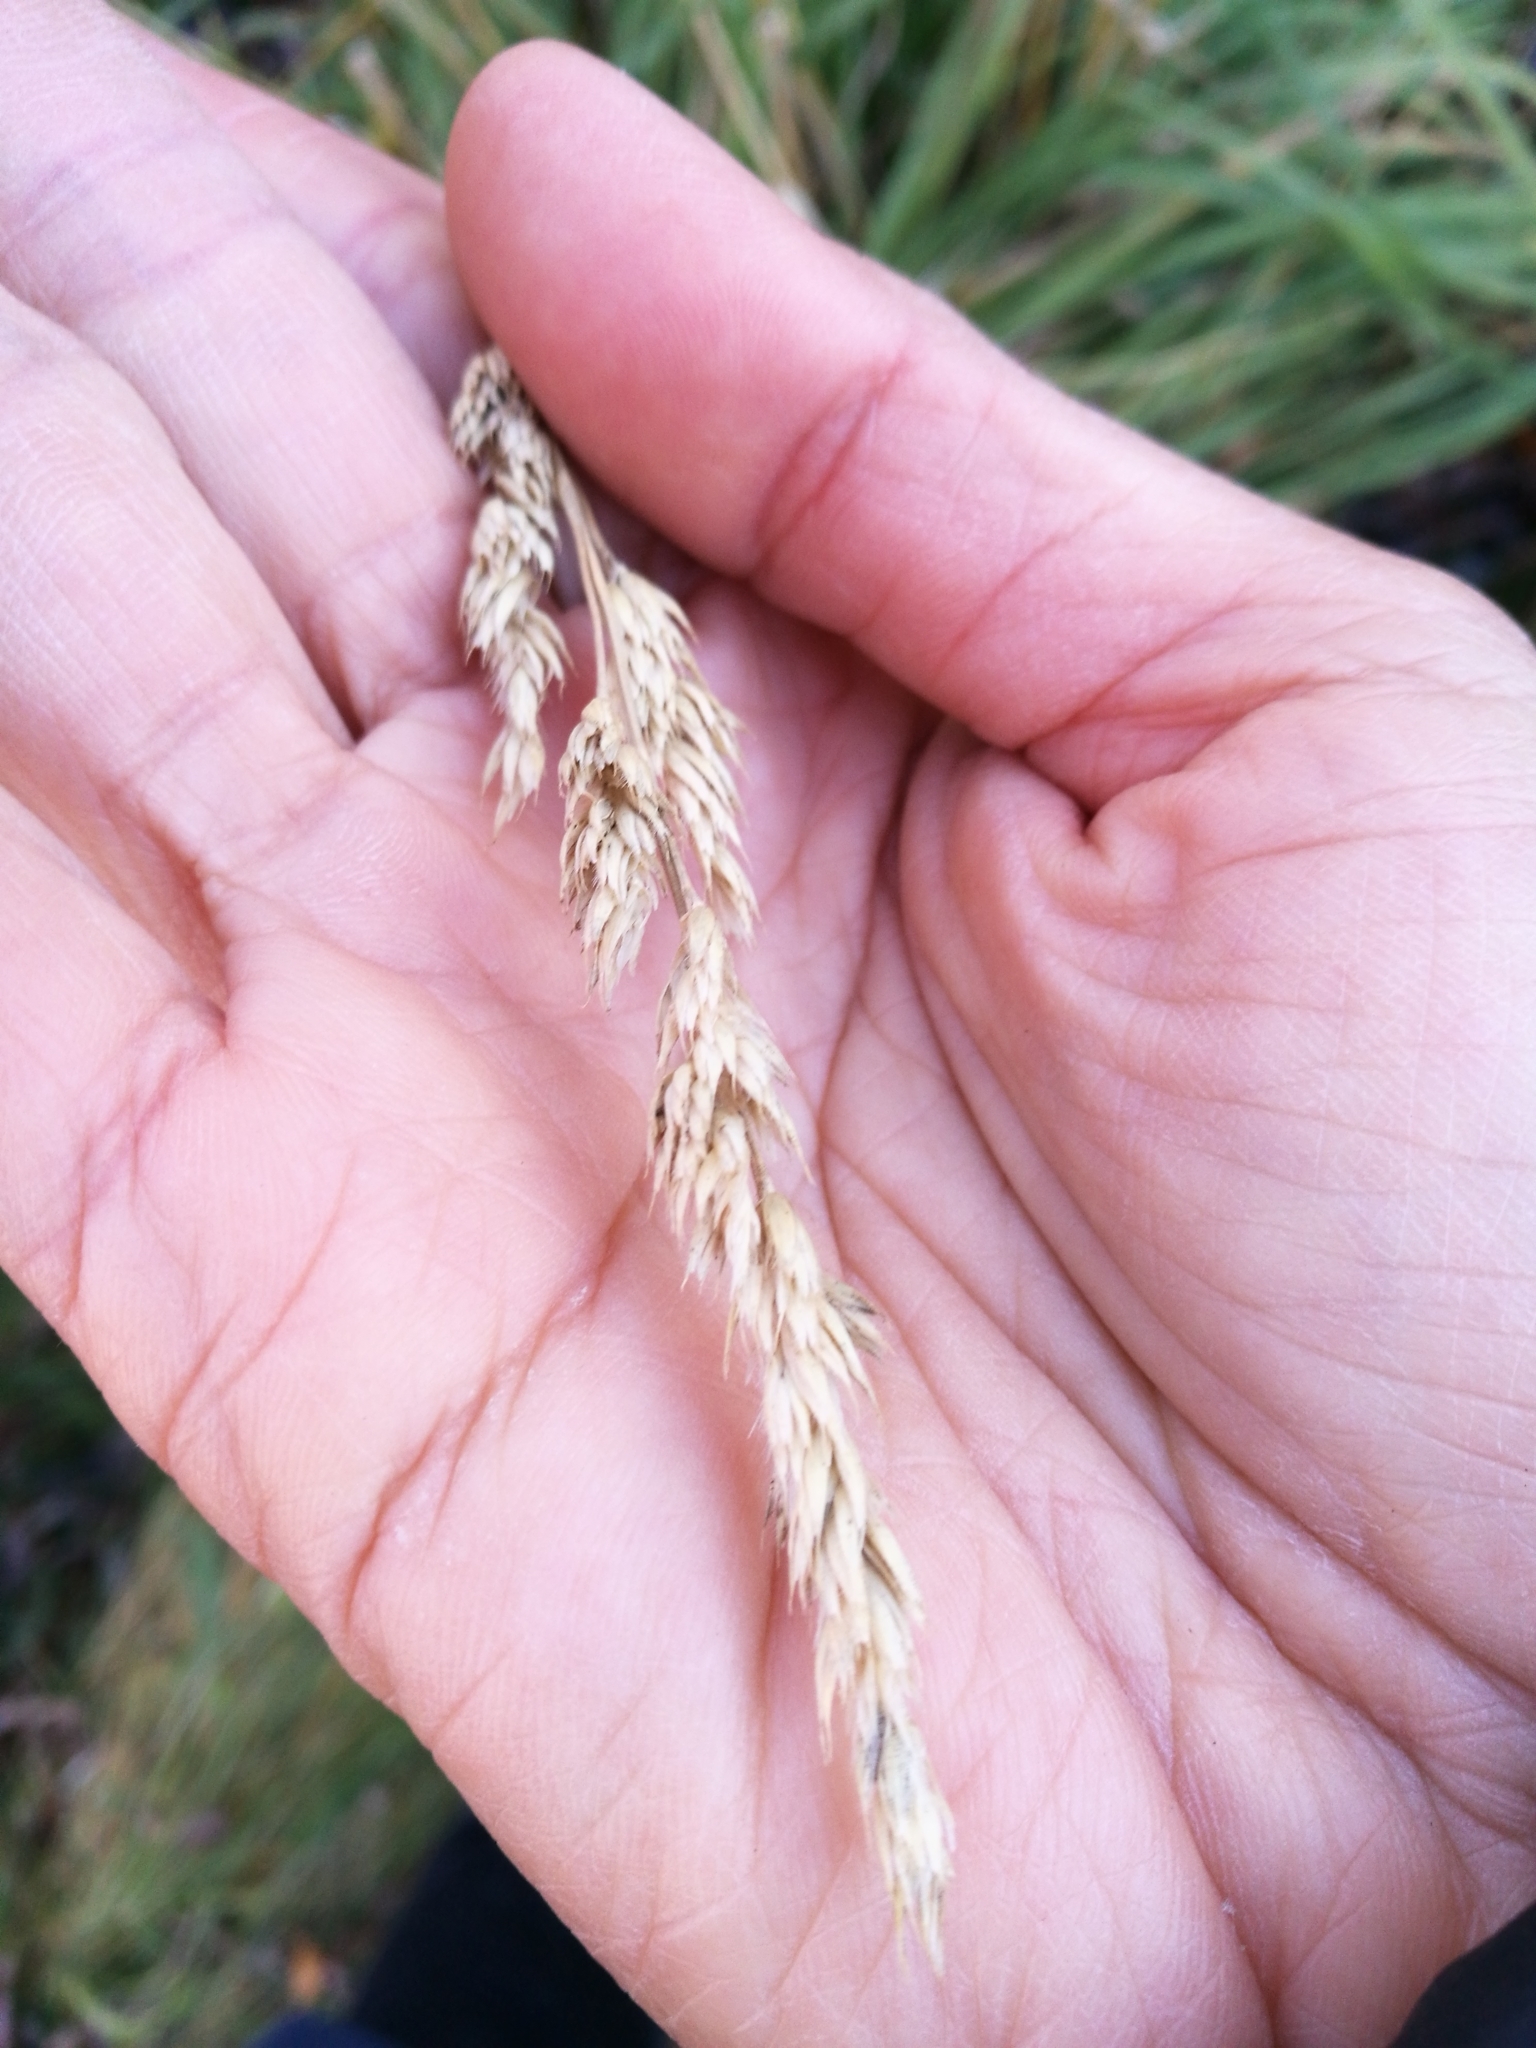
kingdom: Plantae
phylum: Tracheophyta
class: Liliopsida
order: Poales
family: Poaceae
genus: Dactylis
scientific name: Dactylis glomerata
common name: Orchardgrass
